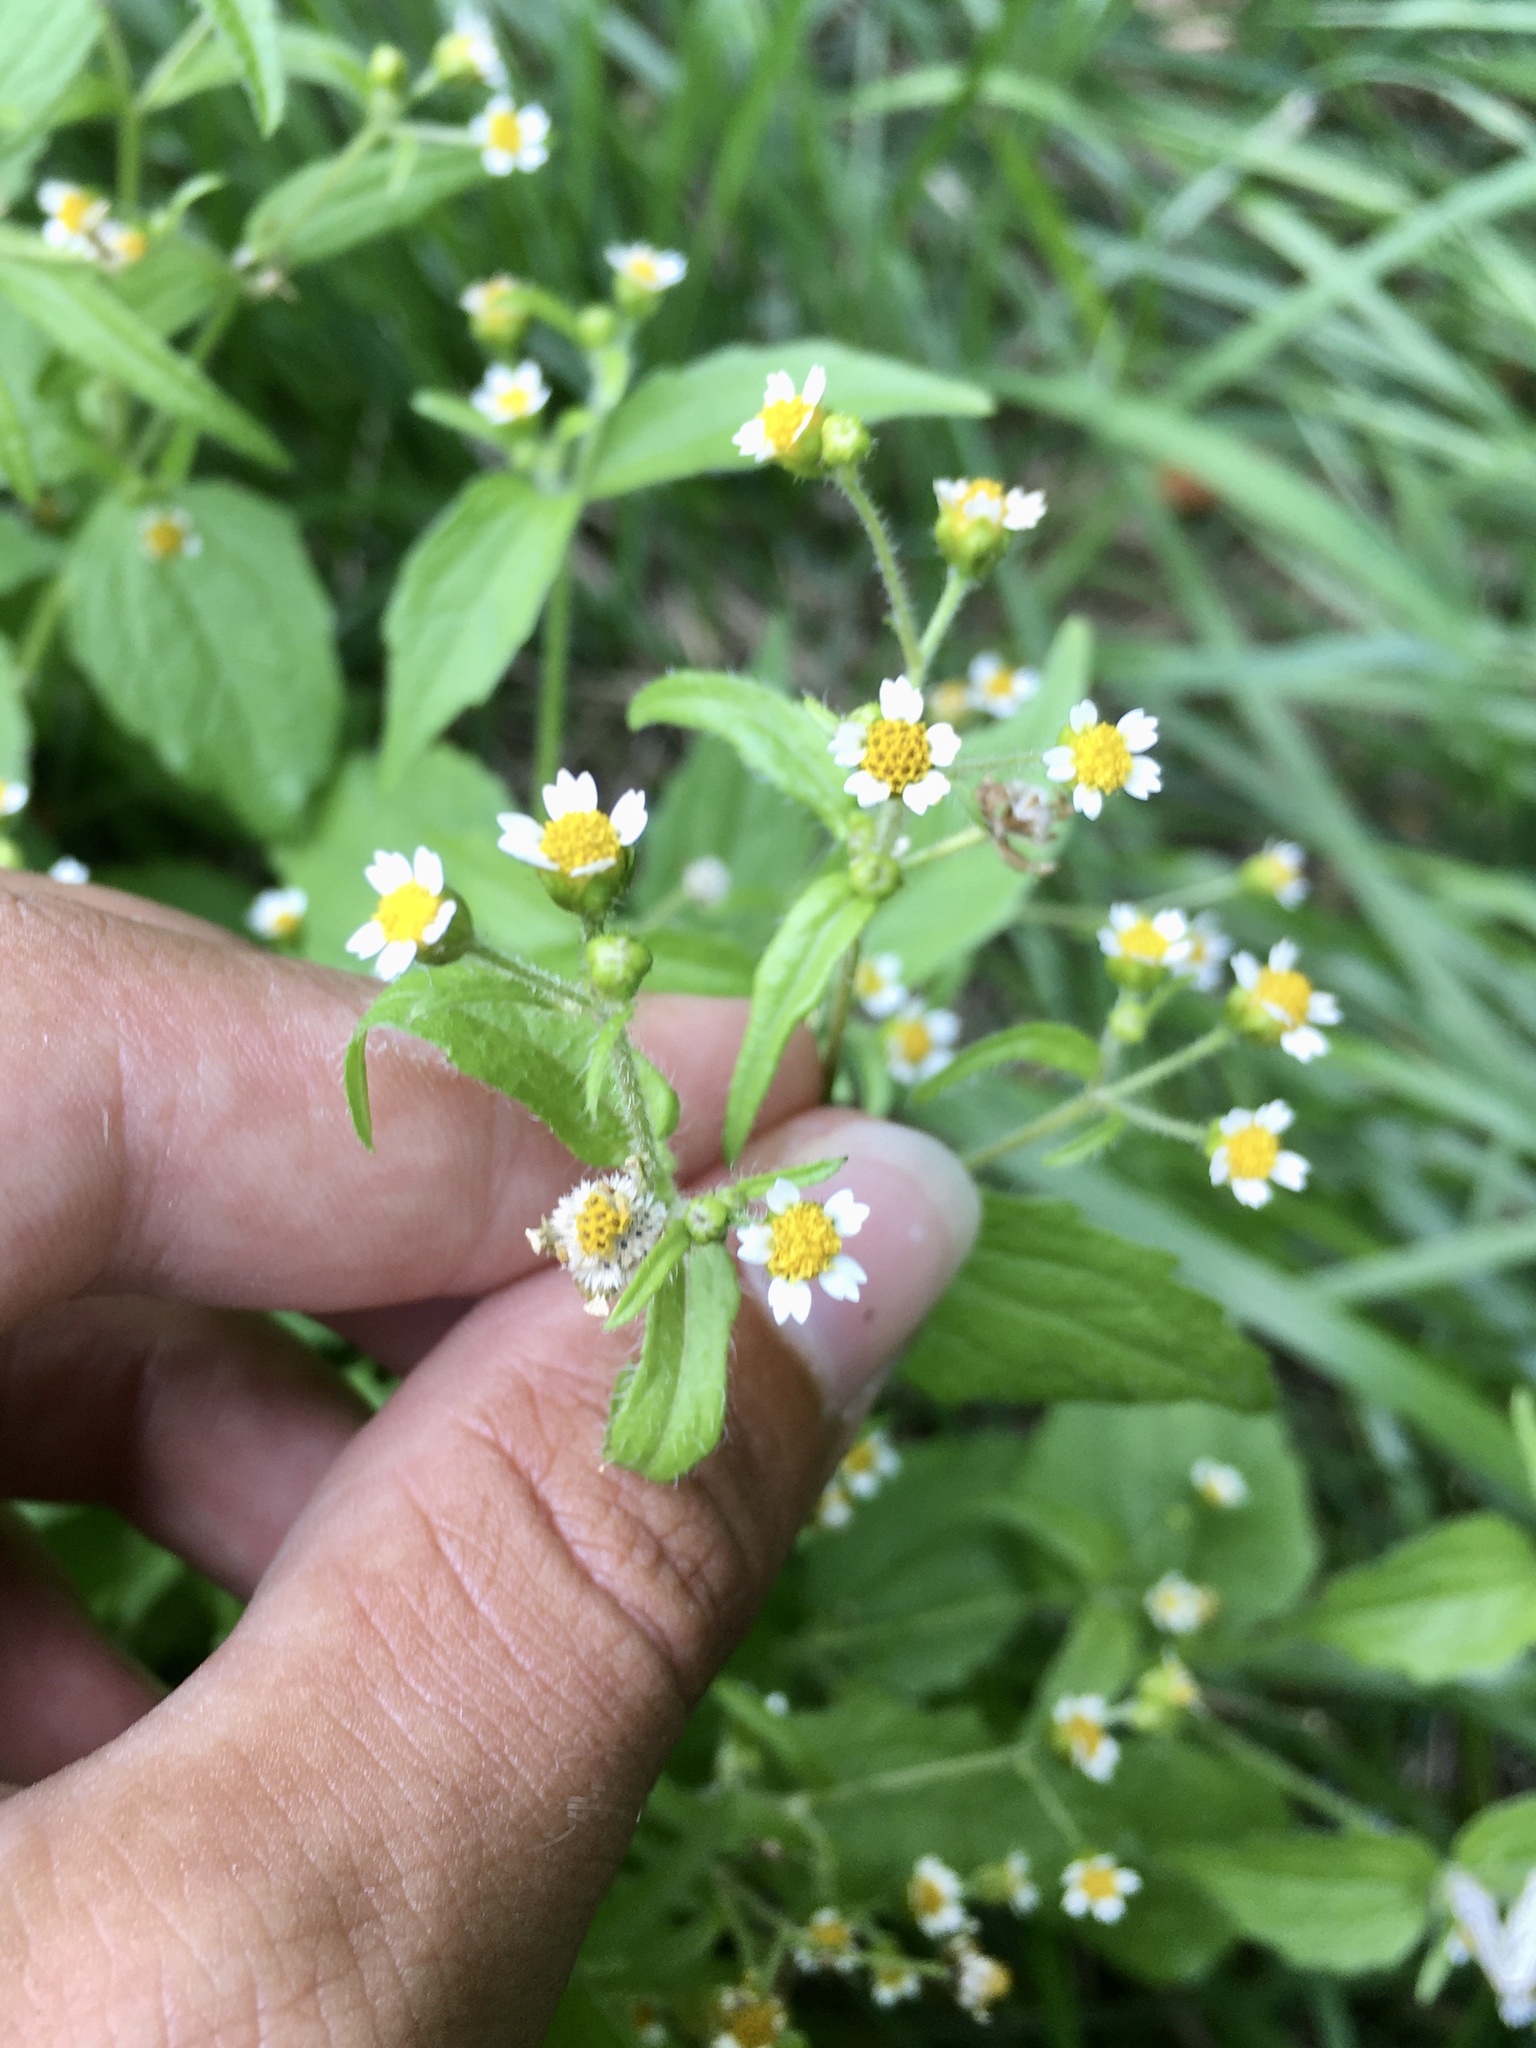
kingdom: Plantae
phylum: Tracheophyta
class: Magnoliopsida
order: Asterales
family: Asteraceae
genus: Galinsoga
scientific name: Galinsoga quadriradiata
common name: Shaggy soldier
